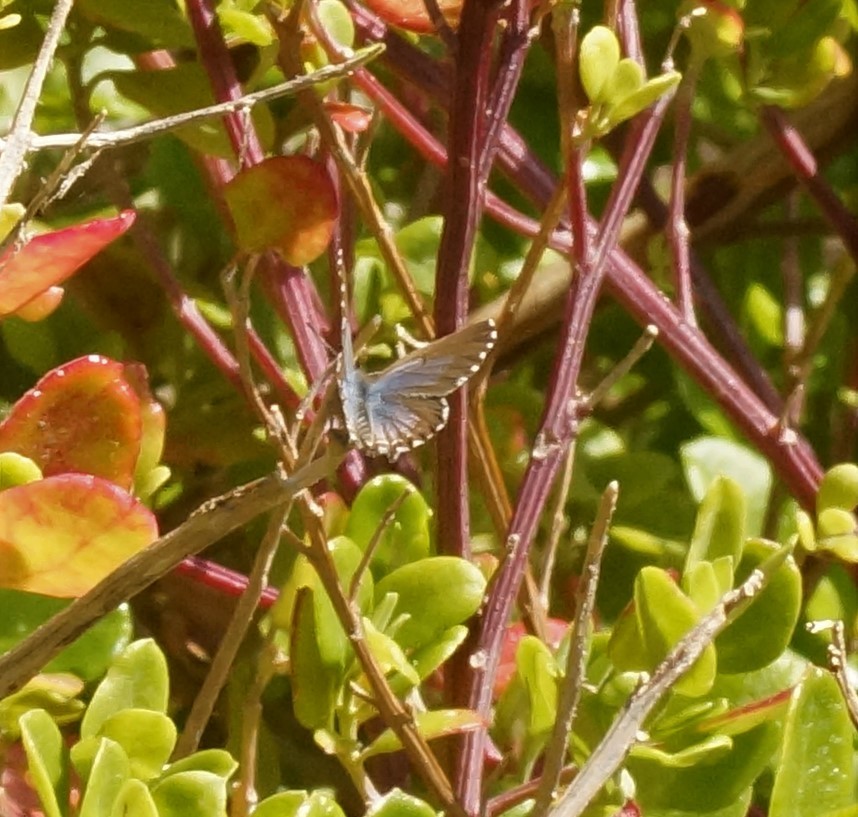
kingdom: Animalia
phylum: Arthropoda
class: Insecta
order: Lepidoptera
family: Lycaenidae
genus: Theclinesthes
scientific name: Theclinesthes serpentata
